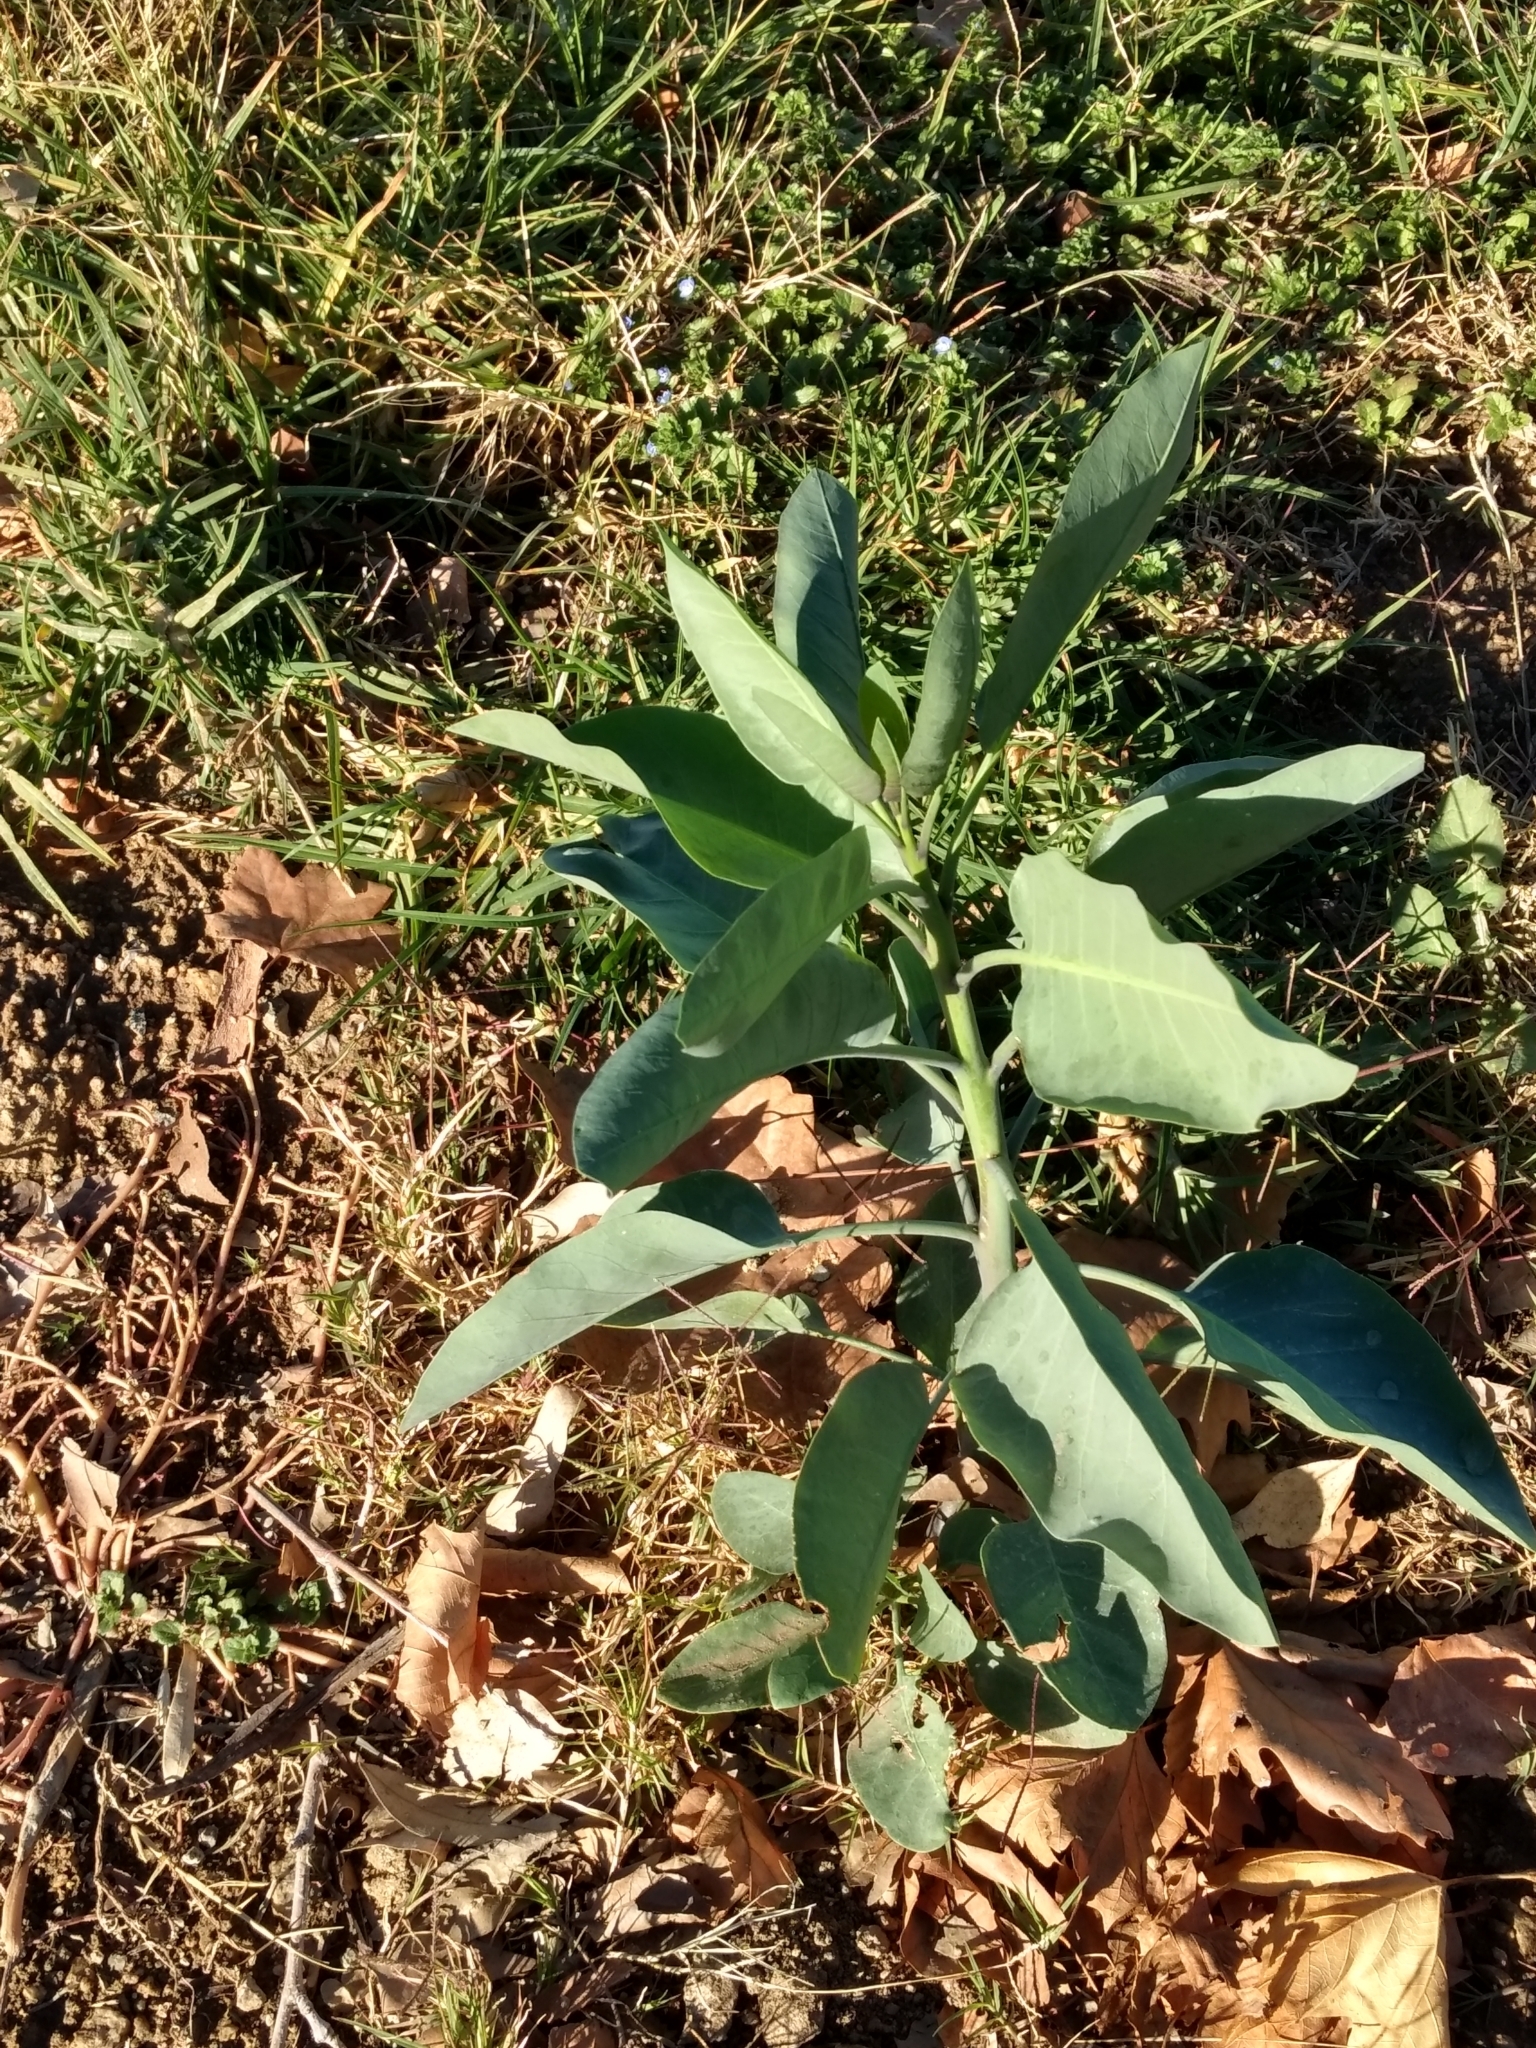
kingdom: Plantae
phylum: Tracheophyta
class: Magnoliopsida
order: Solanales
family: Solanaceae
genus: Nicotiana
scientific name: Nicotiana glauca
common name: Tree tobacco
